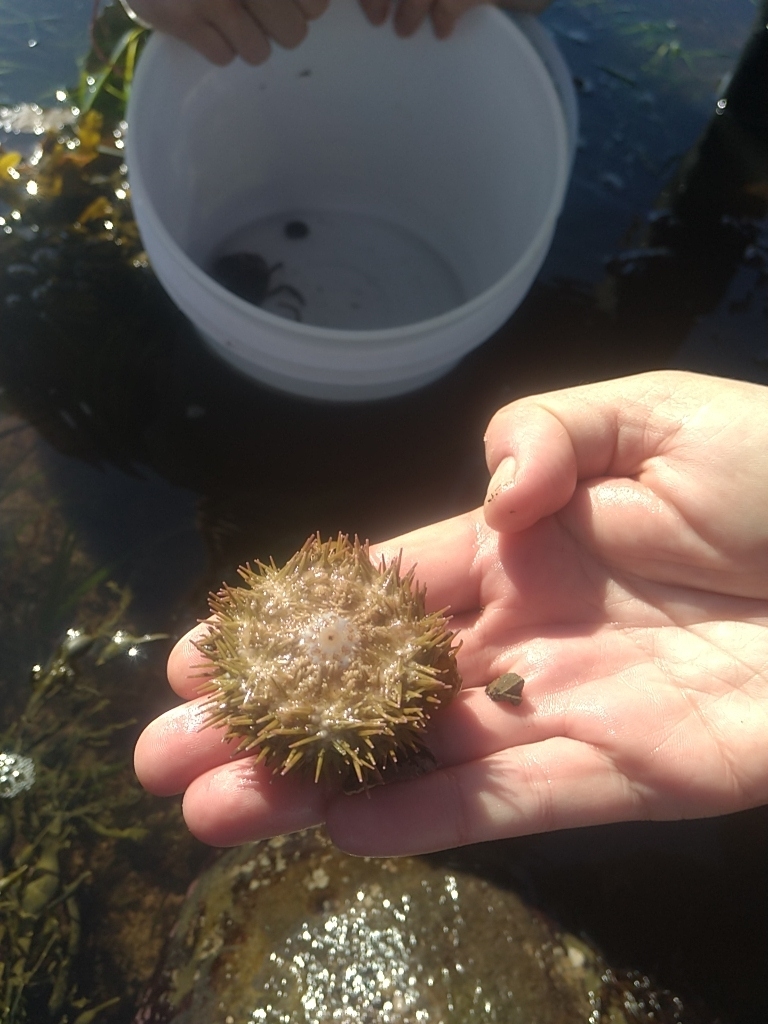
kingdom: Animalia
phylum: Echinodermata
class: Echinoidea
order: Camarodonta
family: Strongylocentrotidae
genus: Strongylocentrotus
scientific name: Strongylocentrotus droebachiensis
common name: Northern sea urchin
